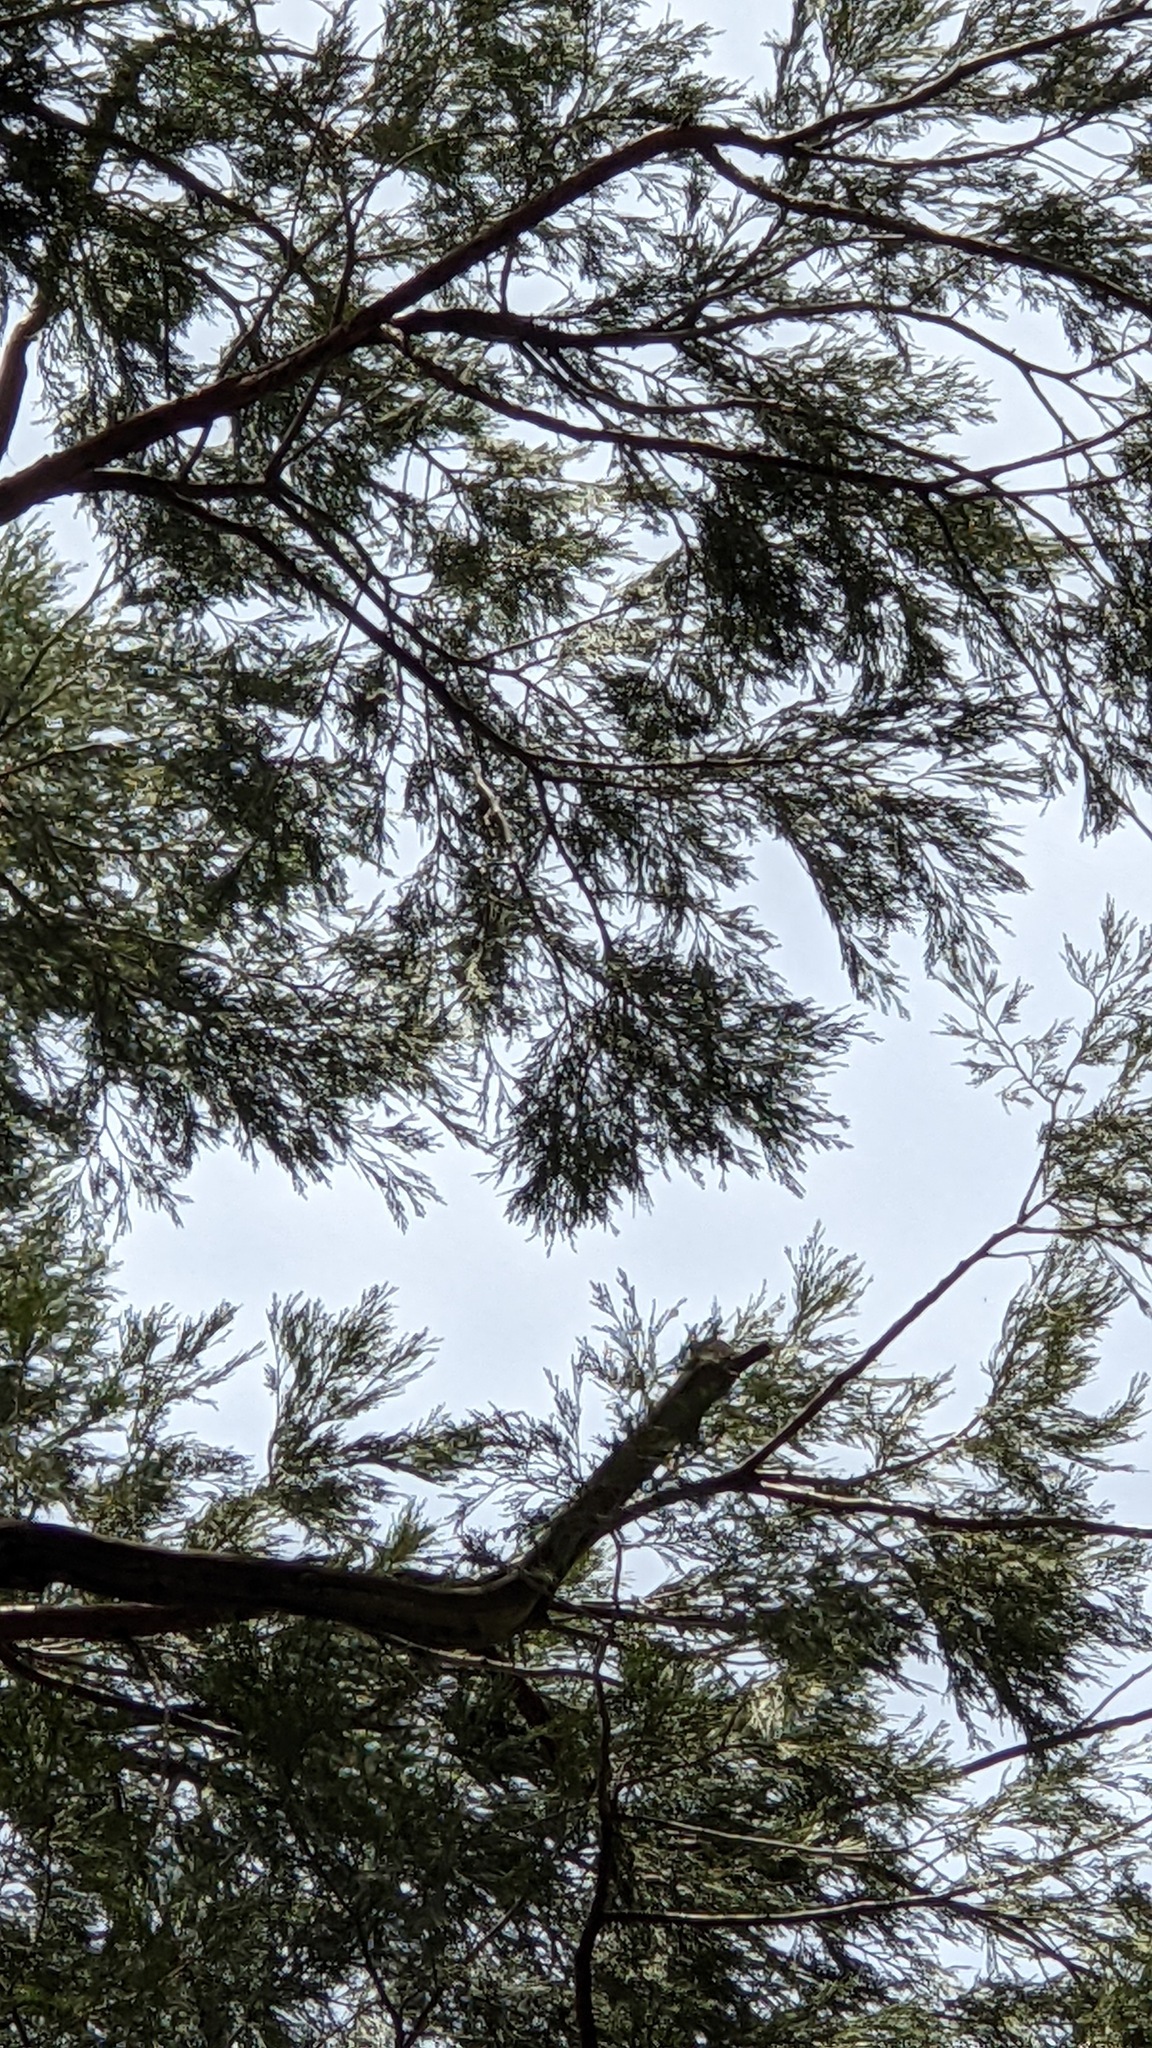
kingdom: Plantae
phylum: Tracheophyta
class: Pinopsida
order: Pinales
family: Cupressaceae
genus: Calocedrus
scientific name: Calocedrus decurrens
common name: Californian incense-cedar
